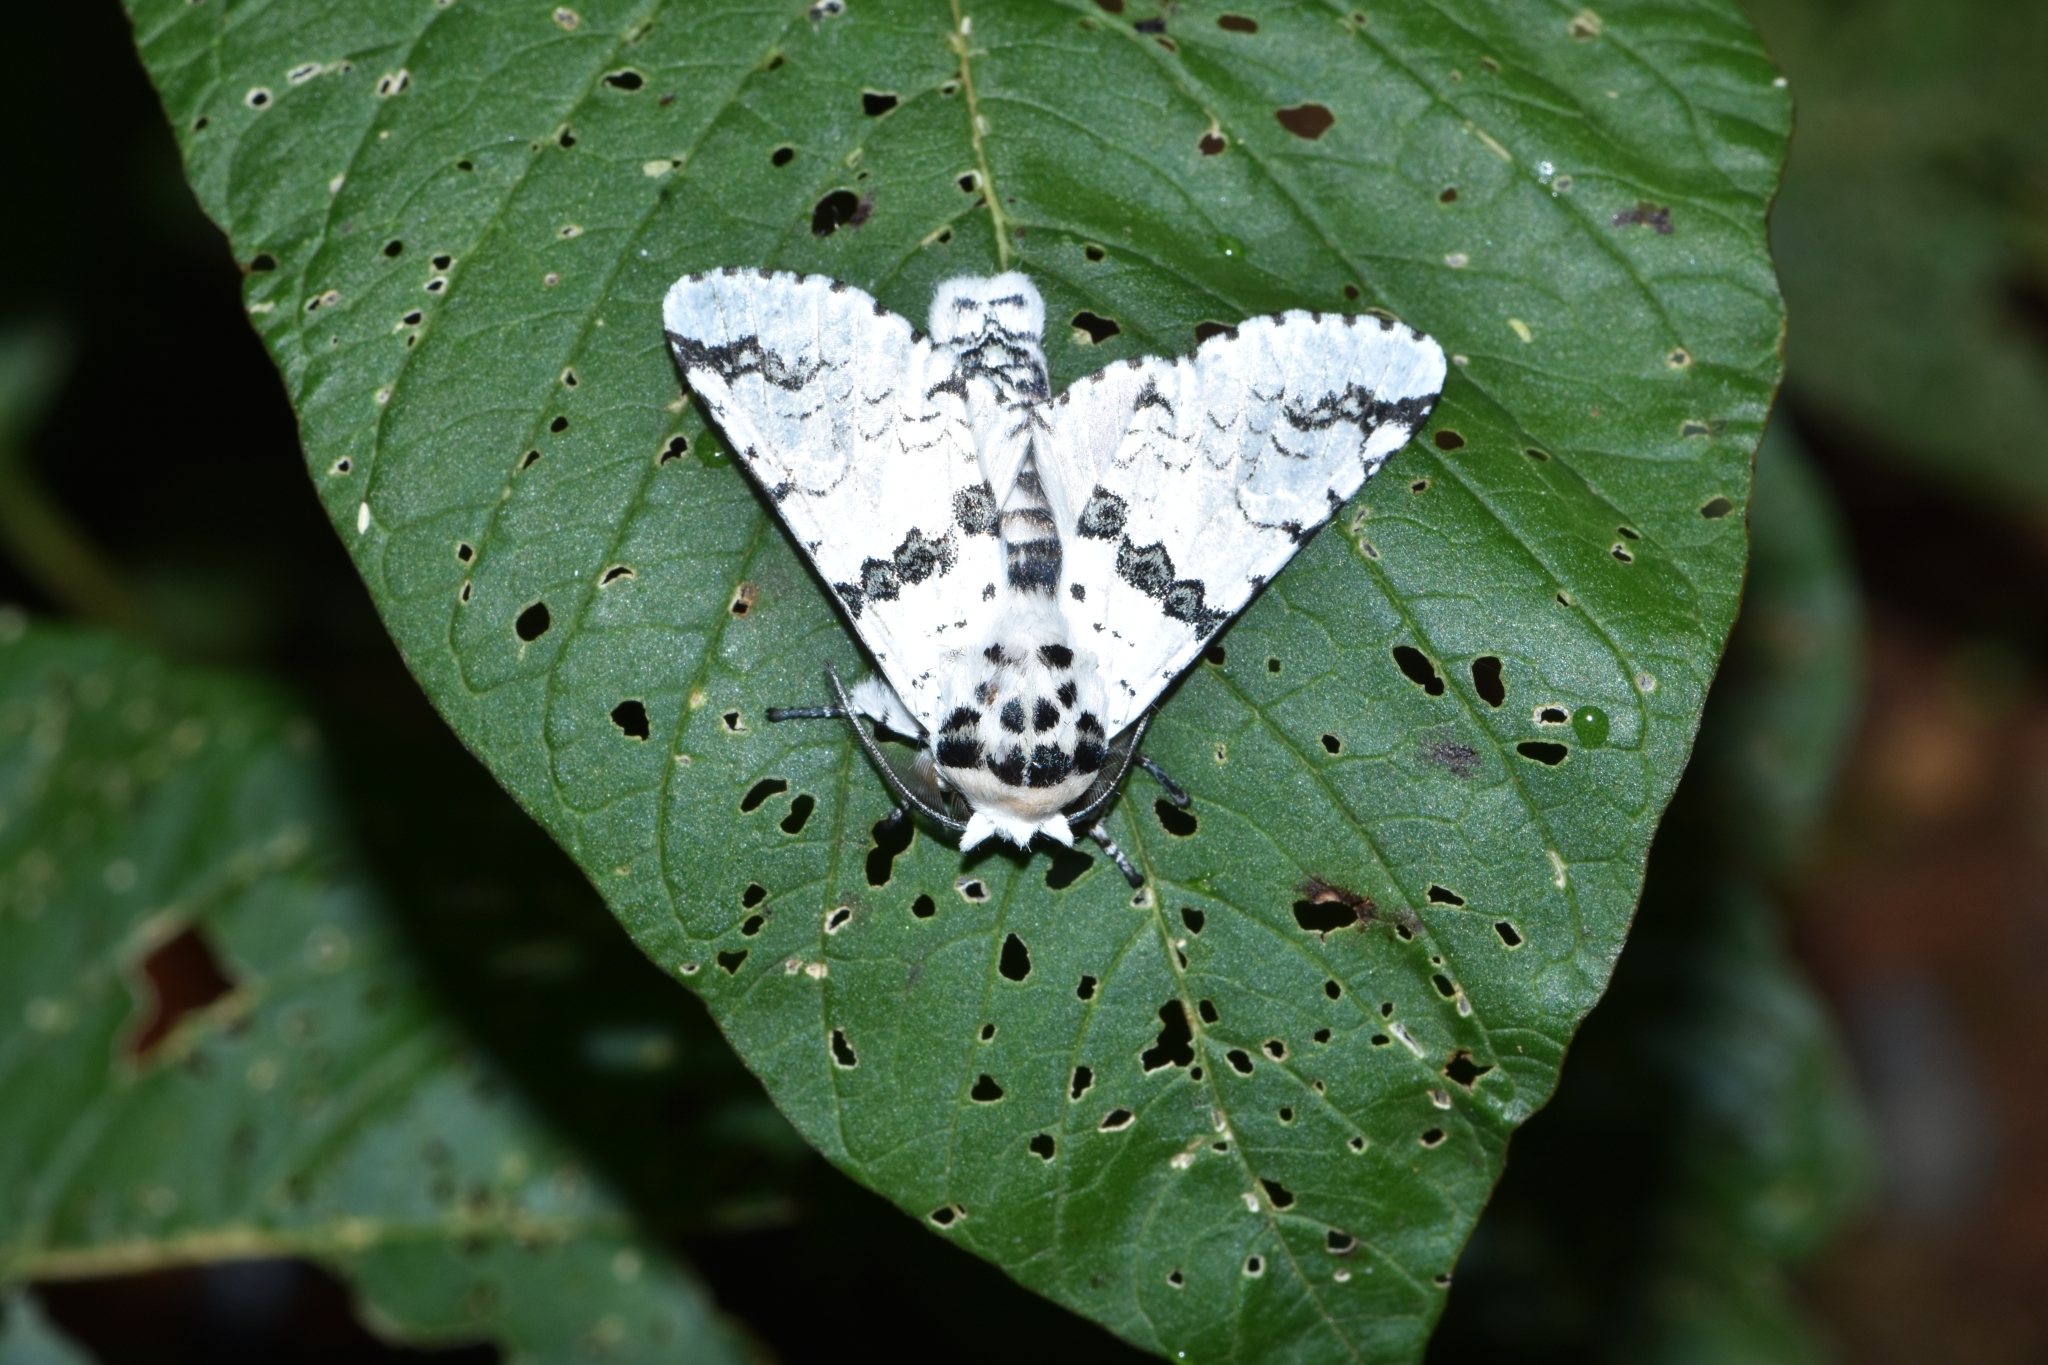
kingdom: Animalia
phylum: Arthropoda
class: Insecta
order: Lepidoptera
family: Notodontidae
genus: Neocerura
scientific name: Neocerura liturata
